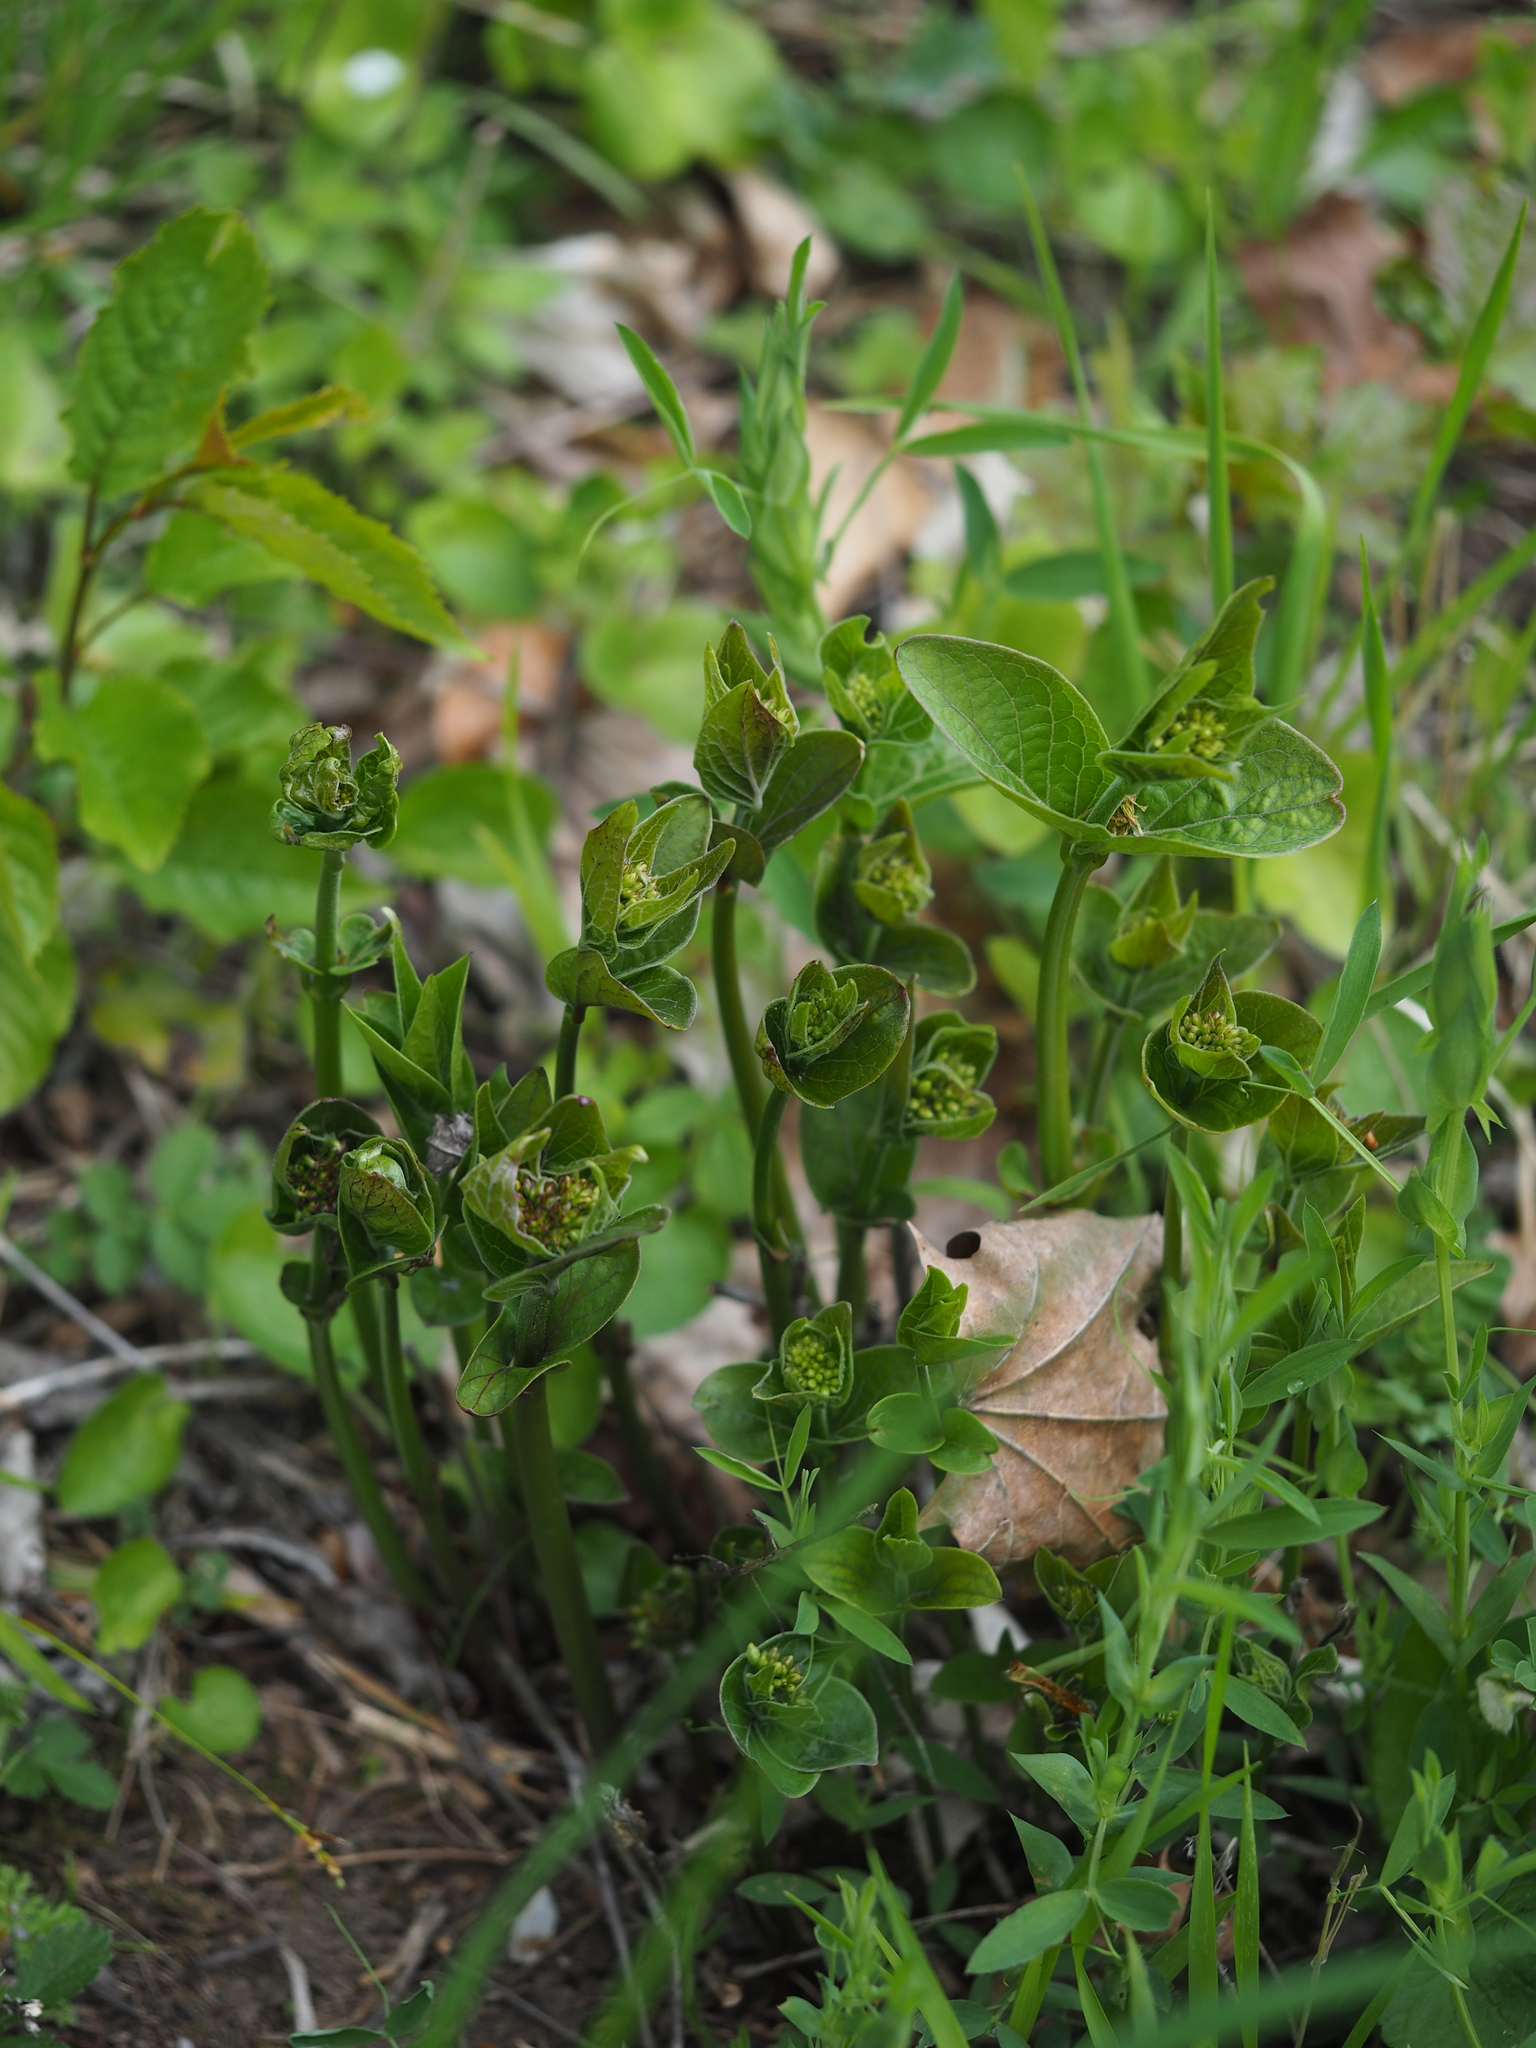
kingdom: Plantae
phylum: Tracheophyta
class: Magnoliopsida
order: Gentianales
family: Apocynaceae
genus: Vincetoxicum
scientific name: Vincetoxicum hirundinaria
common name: White swallowwort
